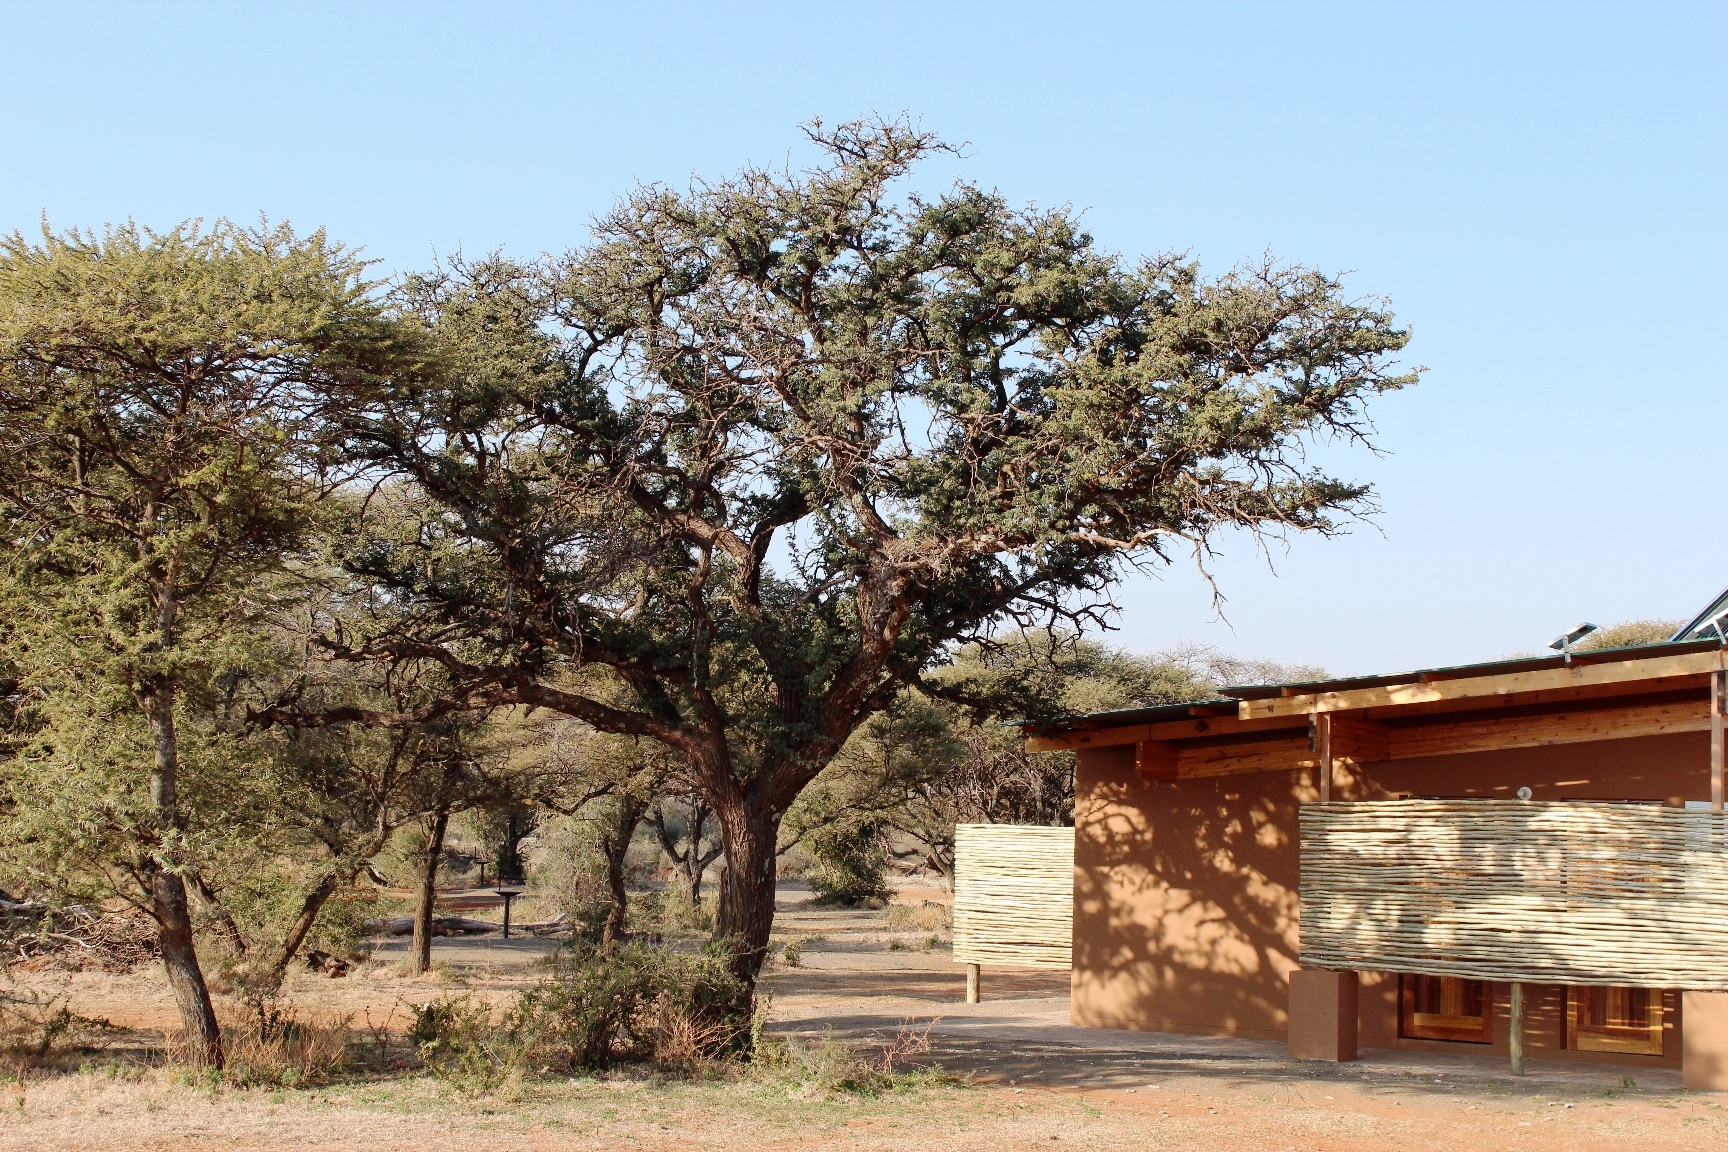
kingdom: Plantae
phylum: Tracheophyta
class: Magnoliopsida
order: Fabales
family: Fabaceae
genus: Vachellia
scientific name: Vachellia erioloba
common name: Camel thorn
